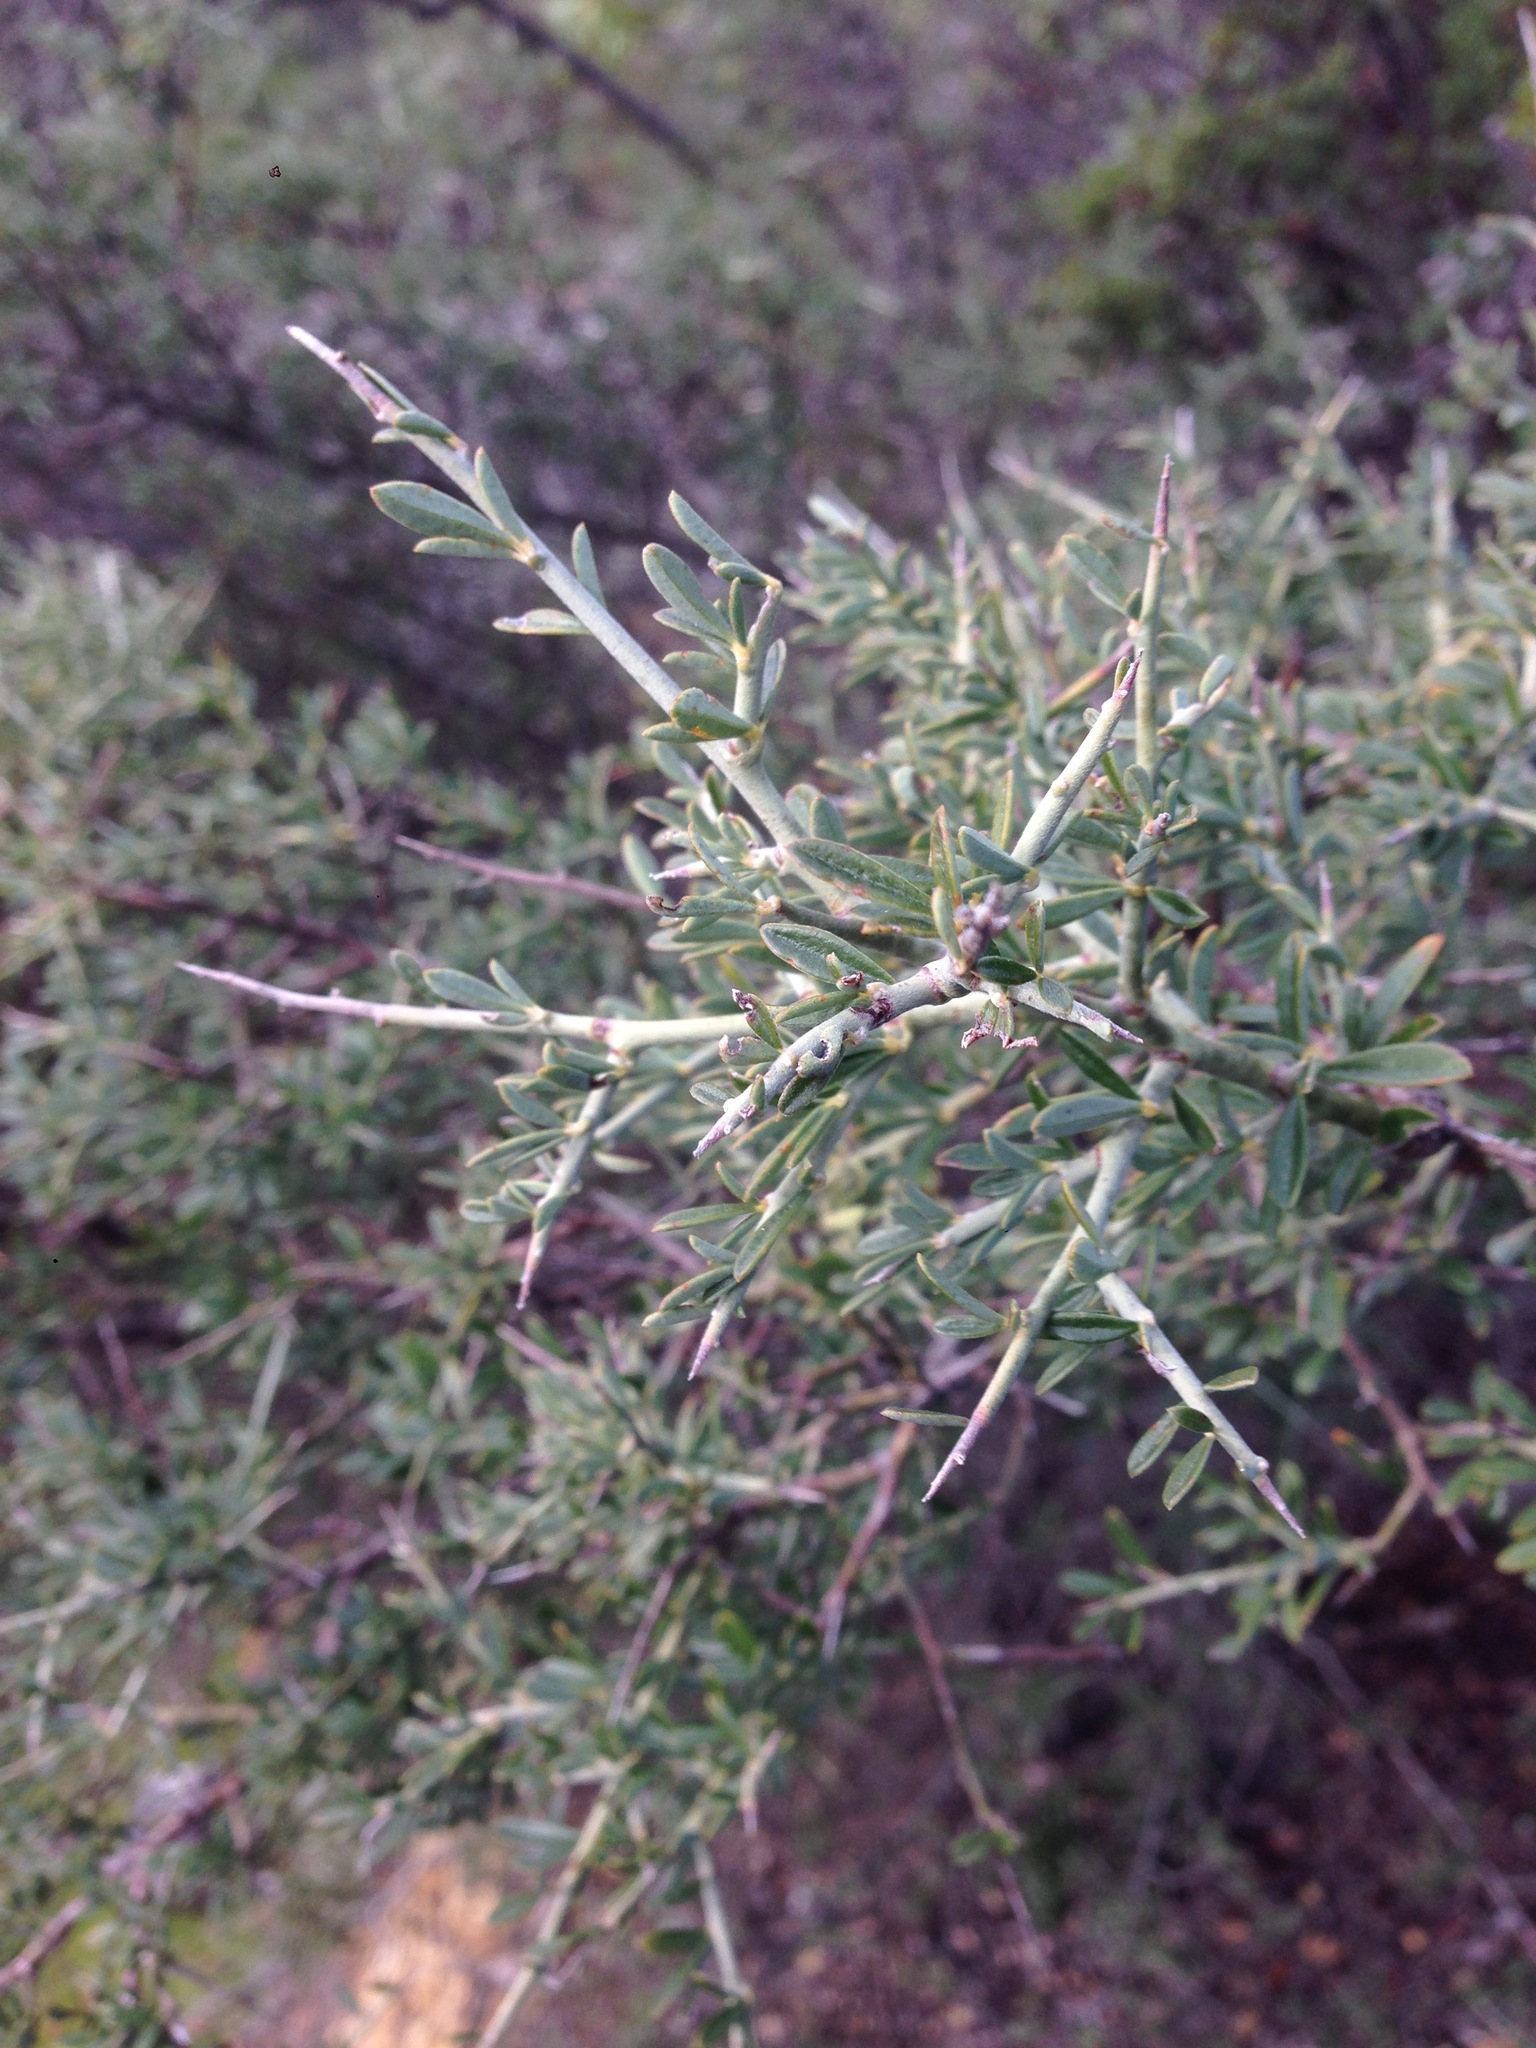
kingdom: Plantae
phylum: Tracheophyta
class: Magnoliopsida
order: Fabales
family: Fabaceae
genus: Pickeringia
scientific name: Pickeringia montana
